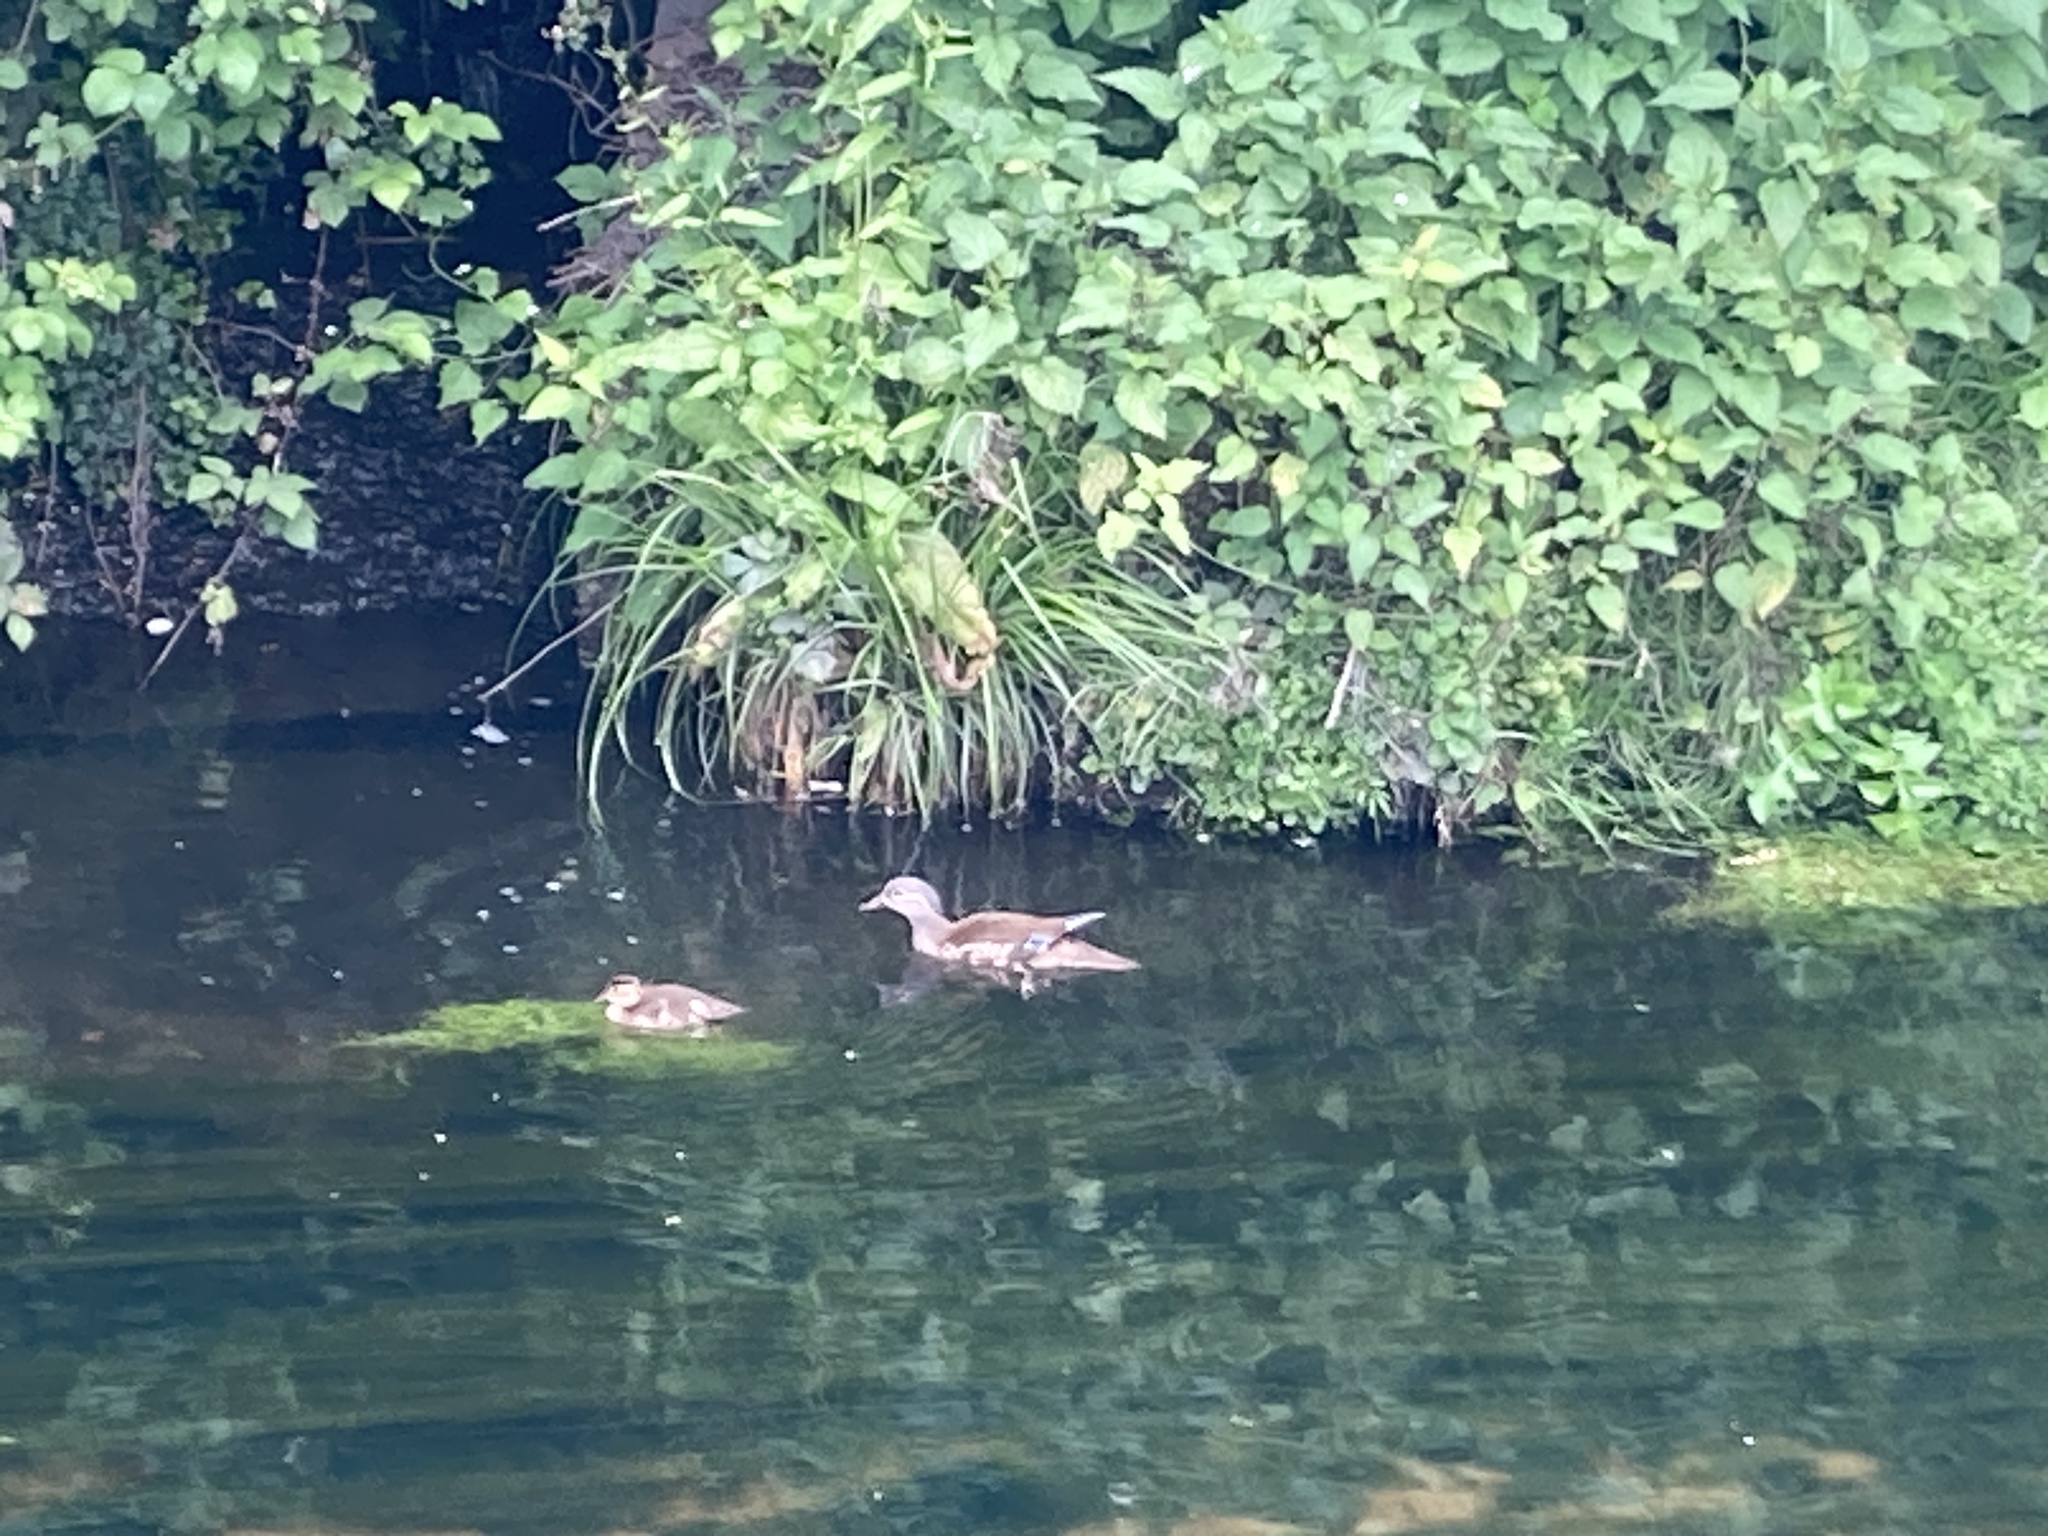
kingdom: Animalia
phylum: Chordata
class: Aves
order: Anseriformes
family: Anatidae
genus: Aix
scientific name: Aix galericulata
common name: Mandarin duck
